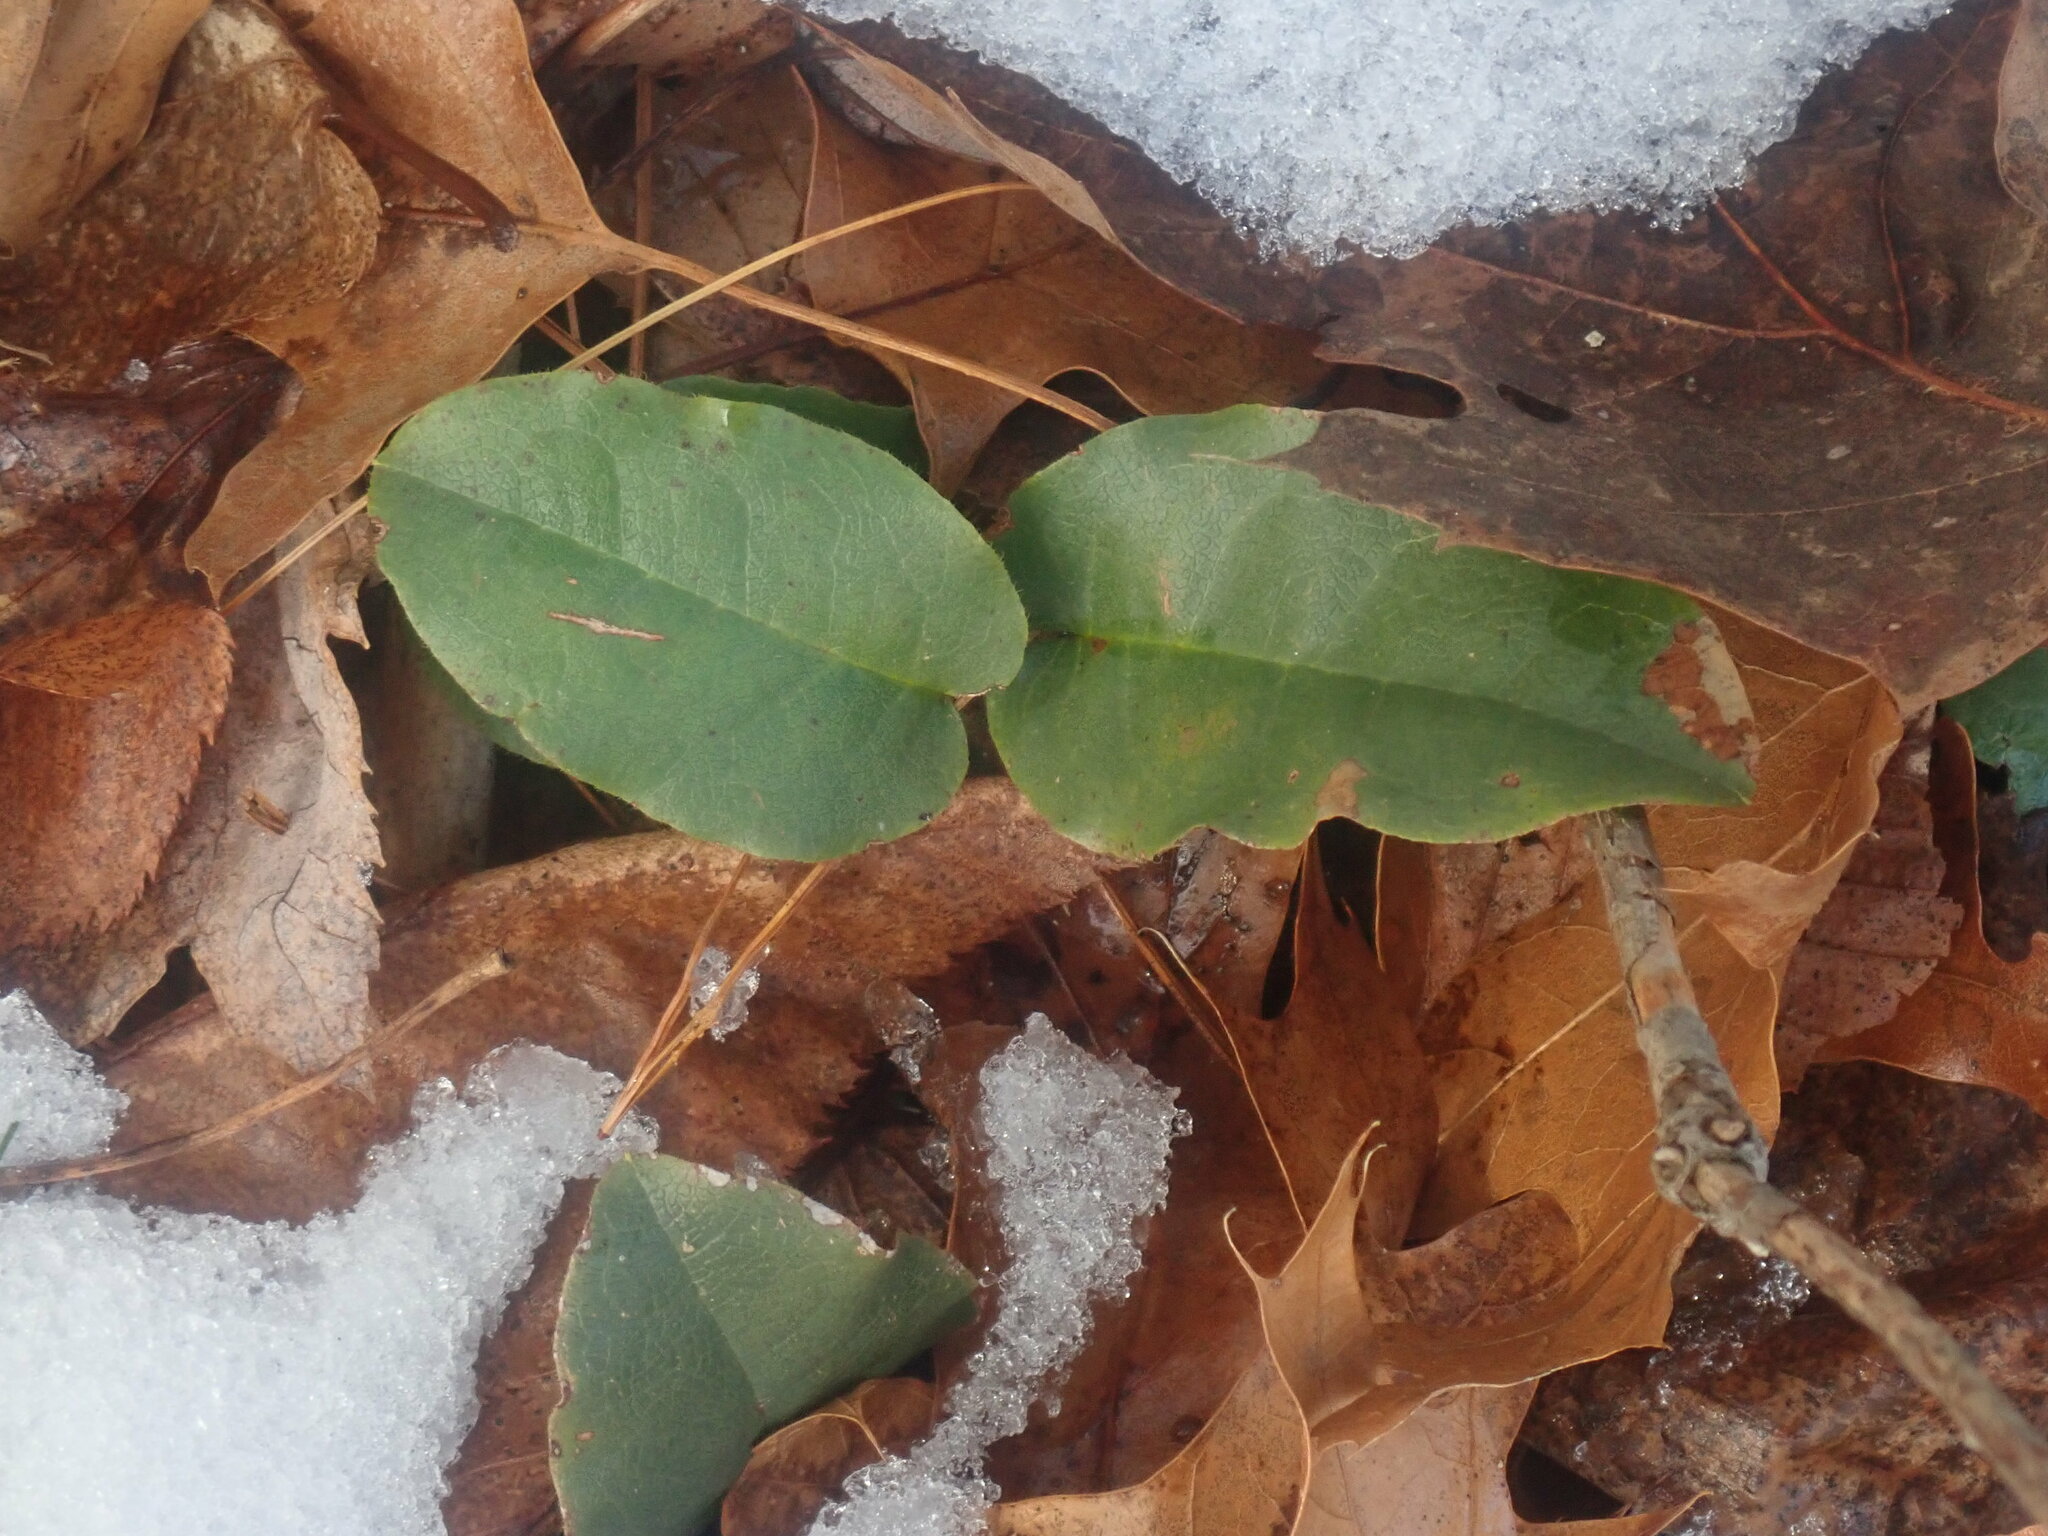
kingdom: Plantae
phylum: Tracheophyta
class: Magnoliopsida
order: Ericales
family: Ericaceae
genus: Epigaea
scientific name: Epigaea repens
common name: Gravelroot
